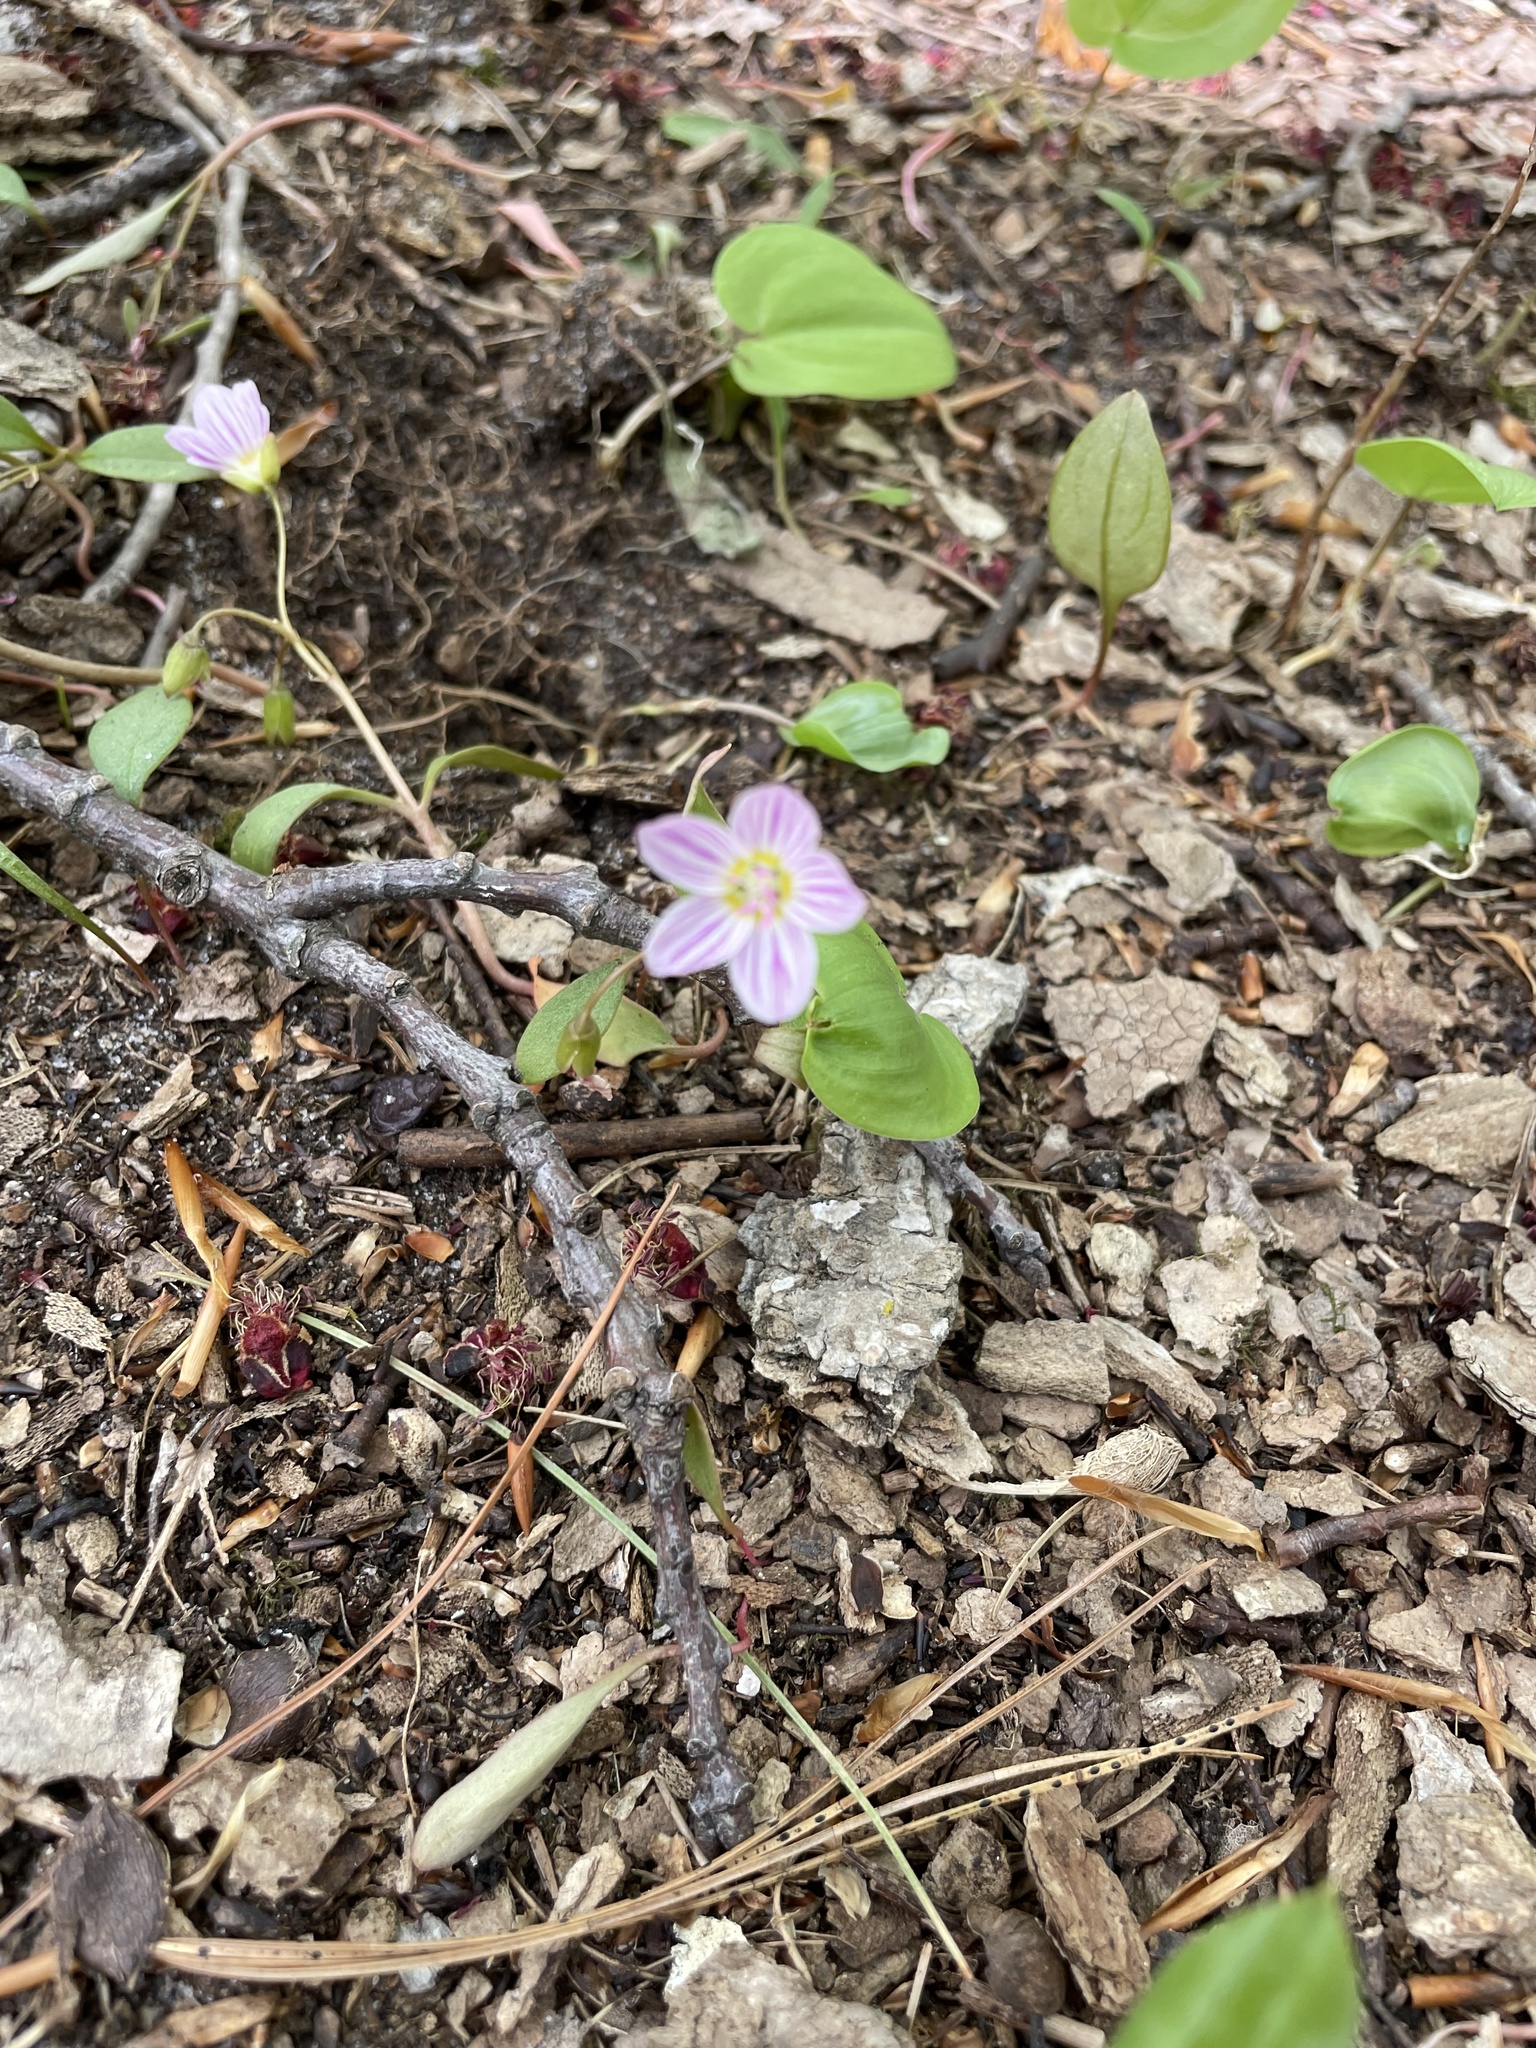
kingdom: Plantae
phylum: Tracheophyta
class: Magnoliopsida
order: Caryophyllales
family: Montiaceae
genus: Claytonia
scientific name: Claytonia caroliniana
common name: Carolina spring beauty
